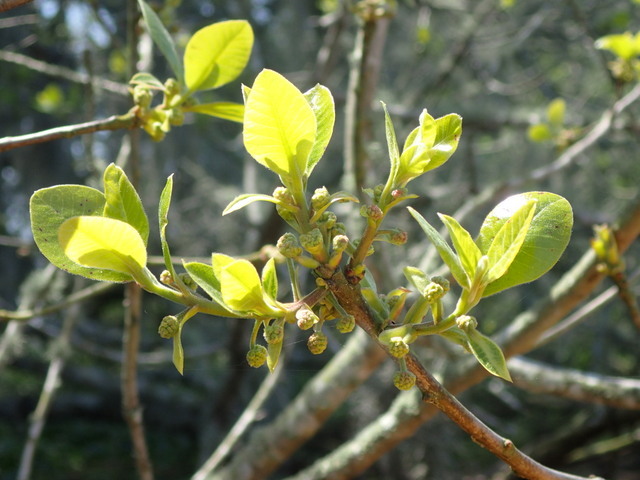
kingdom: Plantae
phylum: Tracheophyta
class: Magnoliopsida
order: Cornales
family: Nyssaceae
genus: Nyssa
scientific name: Nyssa ogeche
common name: Ogeechee tupelo
